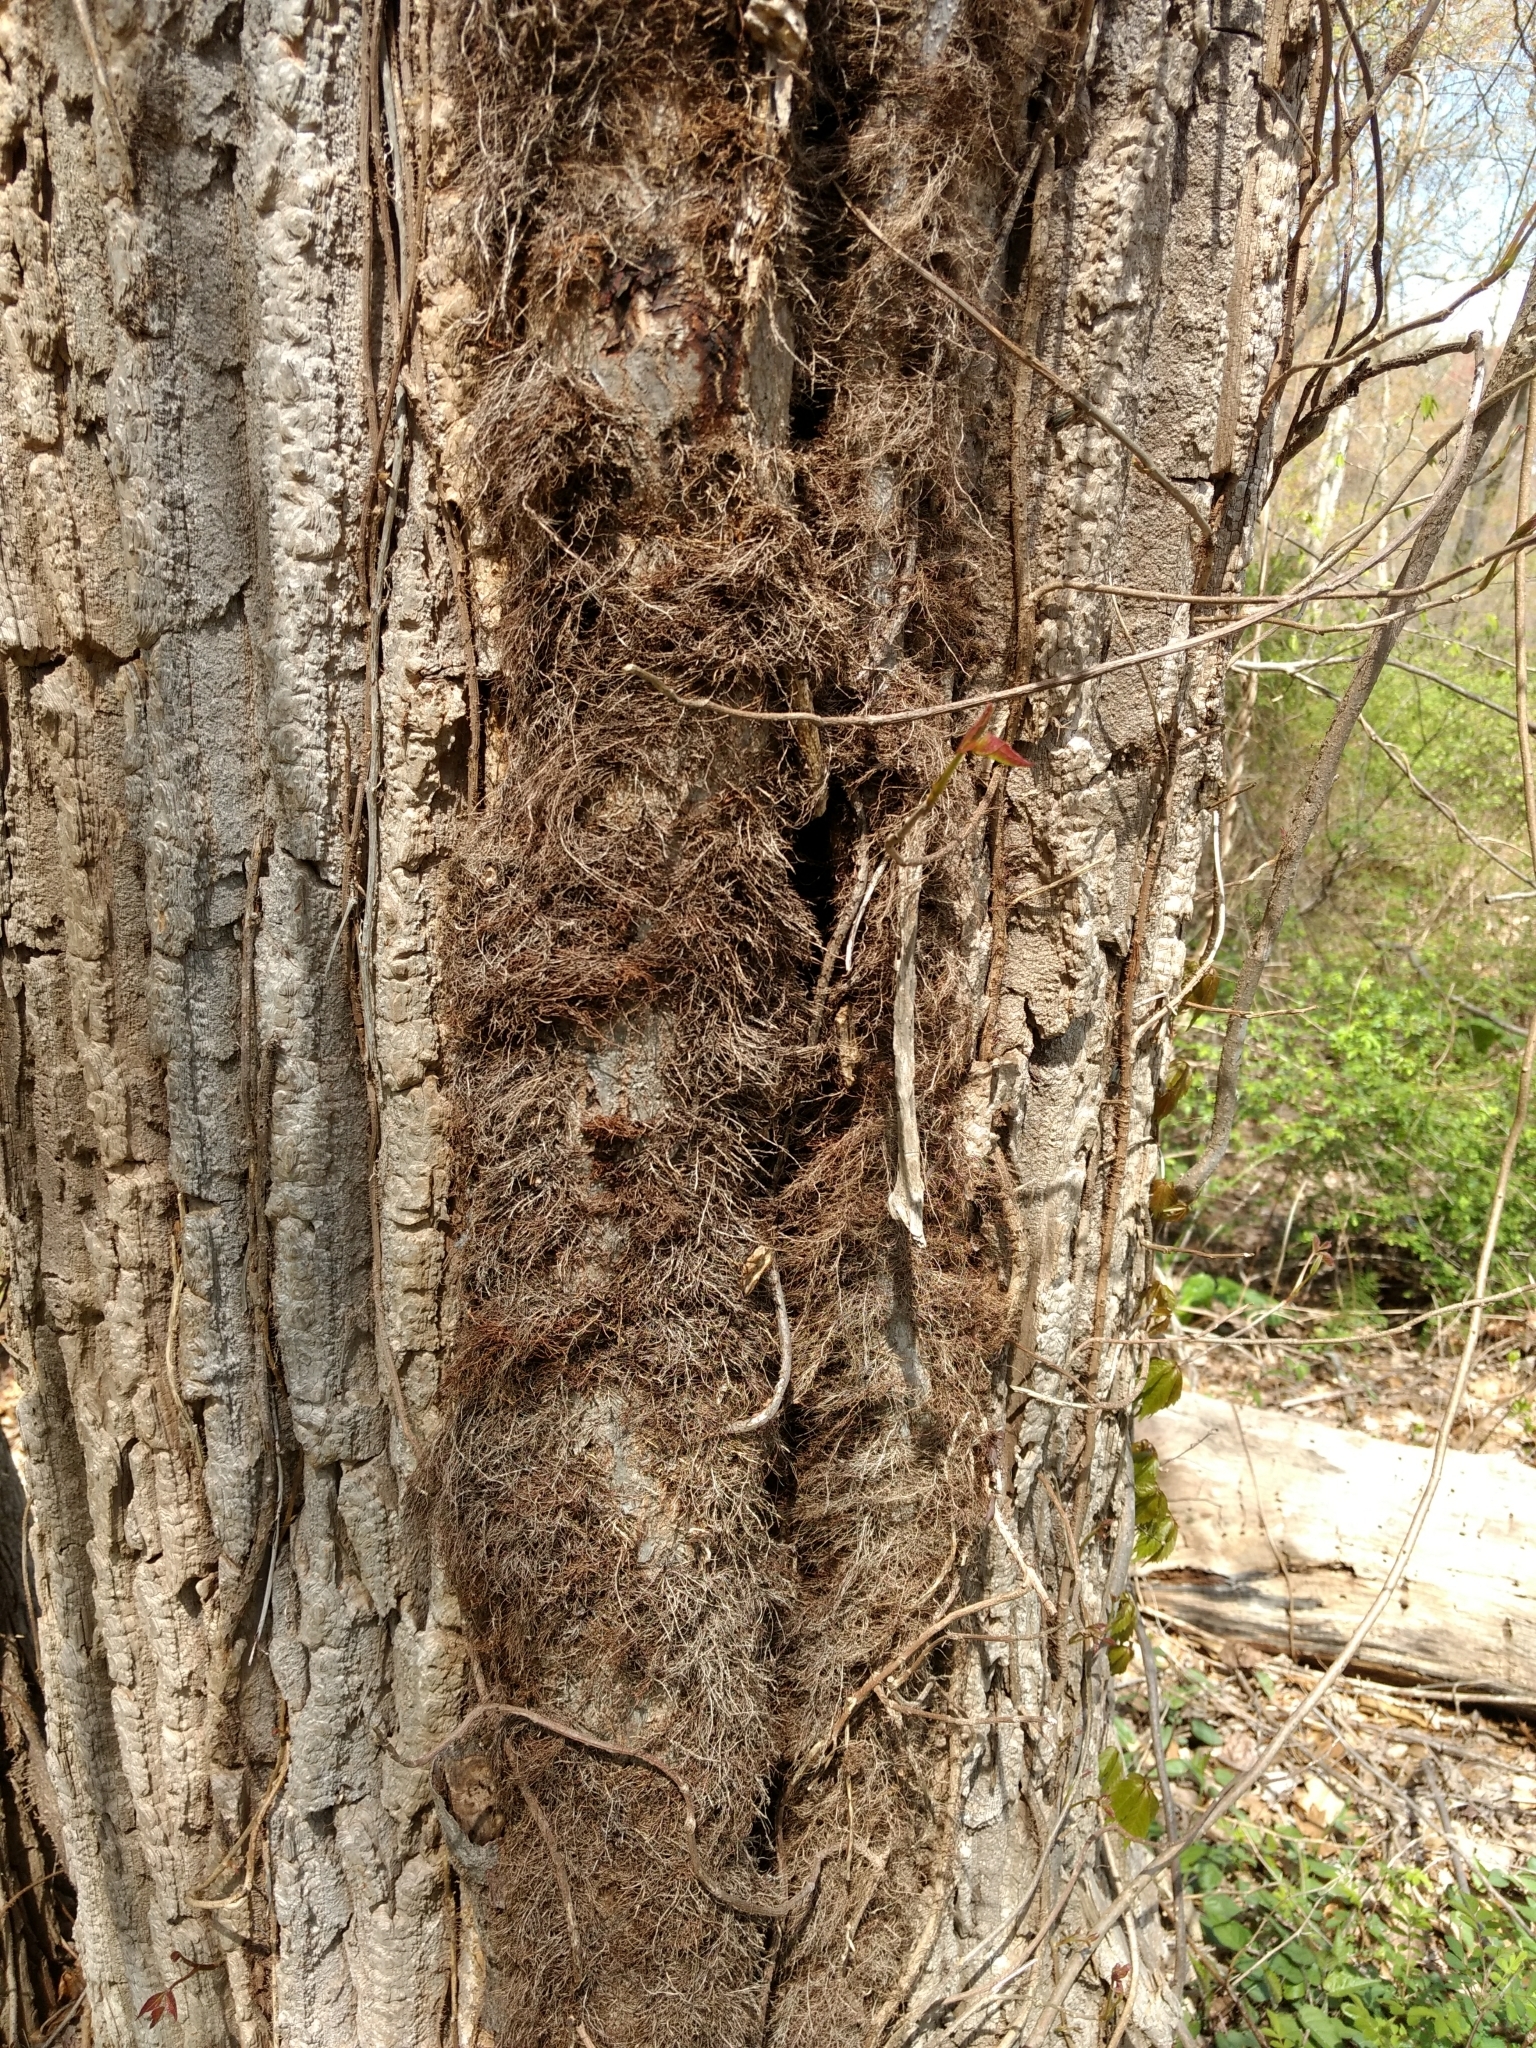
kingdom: Plantae
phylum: Tracheophyta
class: Magnoliopsida
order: Sapindales
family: Anacardiaceae
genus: Toxicodendron
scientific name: Toxicodendron radicans
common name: Poison ivy
